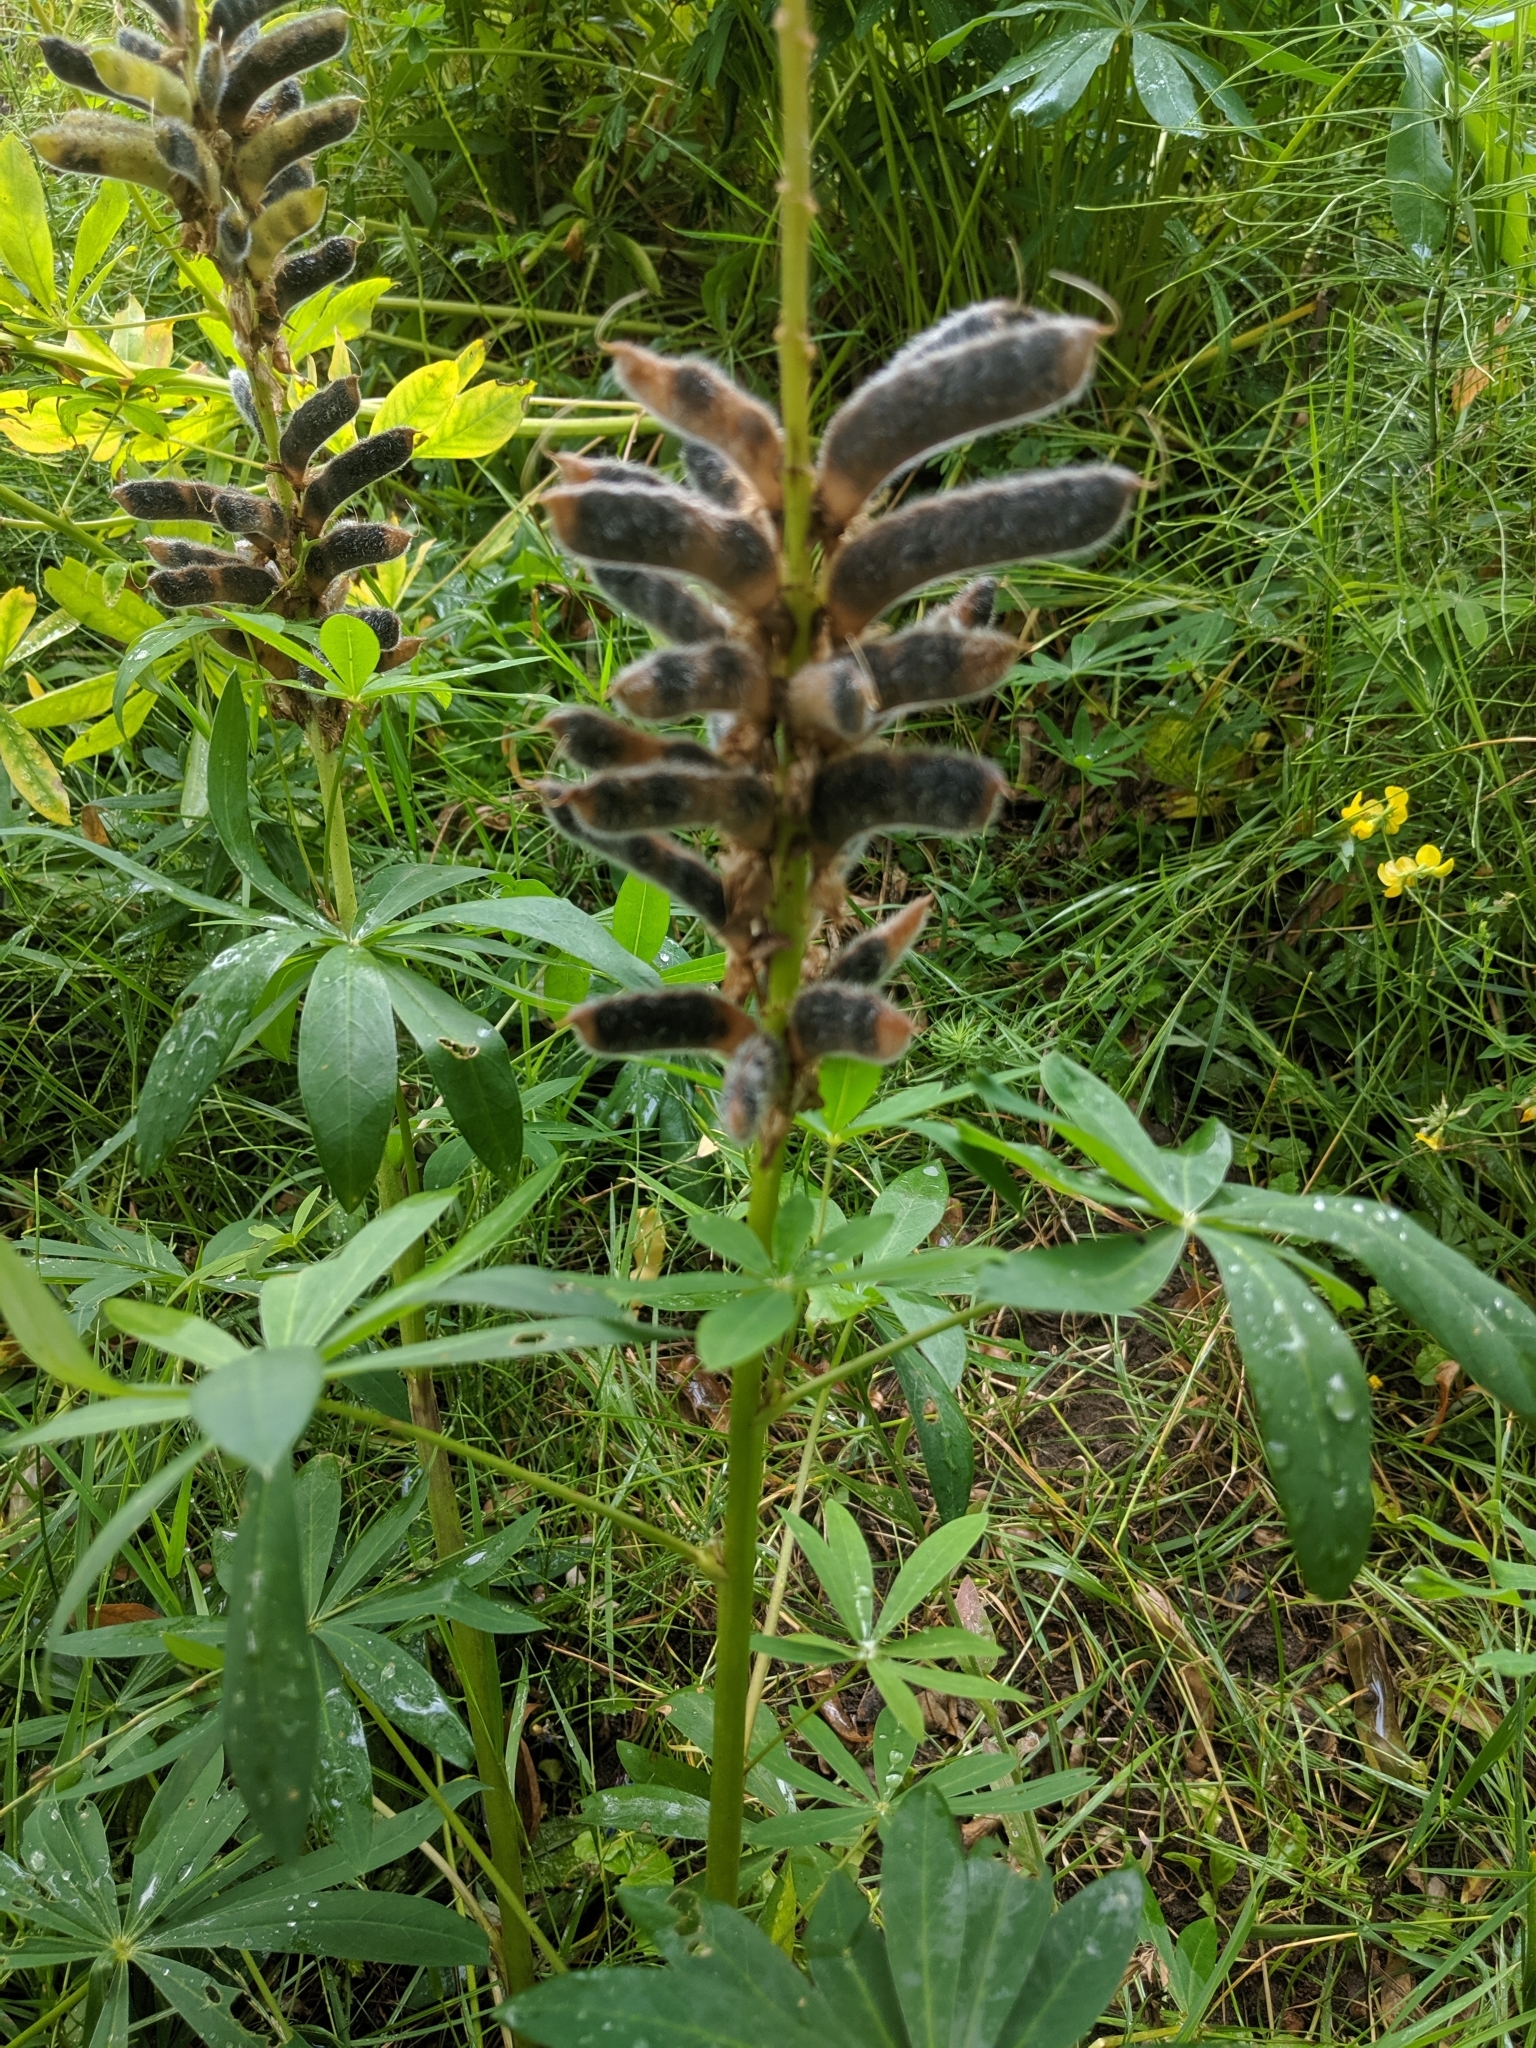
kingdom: Plantae
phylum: Tracheophyta
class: Magnoliopsida
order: Fabales
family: Fabaceae
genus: Lupinus
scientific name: Lupinus polyphyllus
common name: Garden lupin
